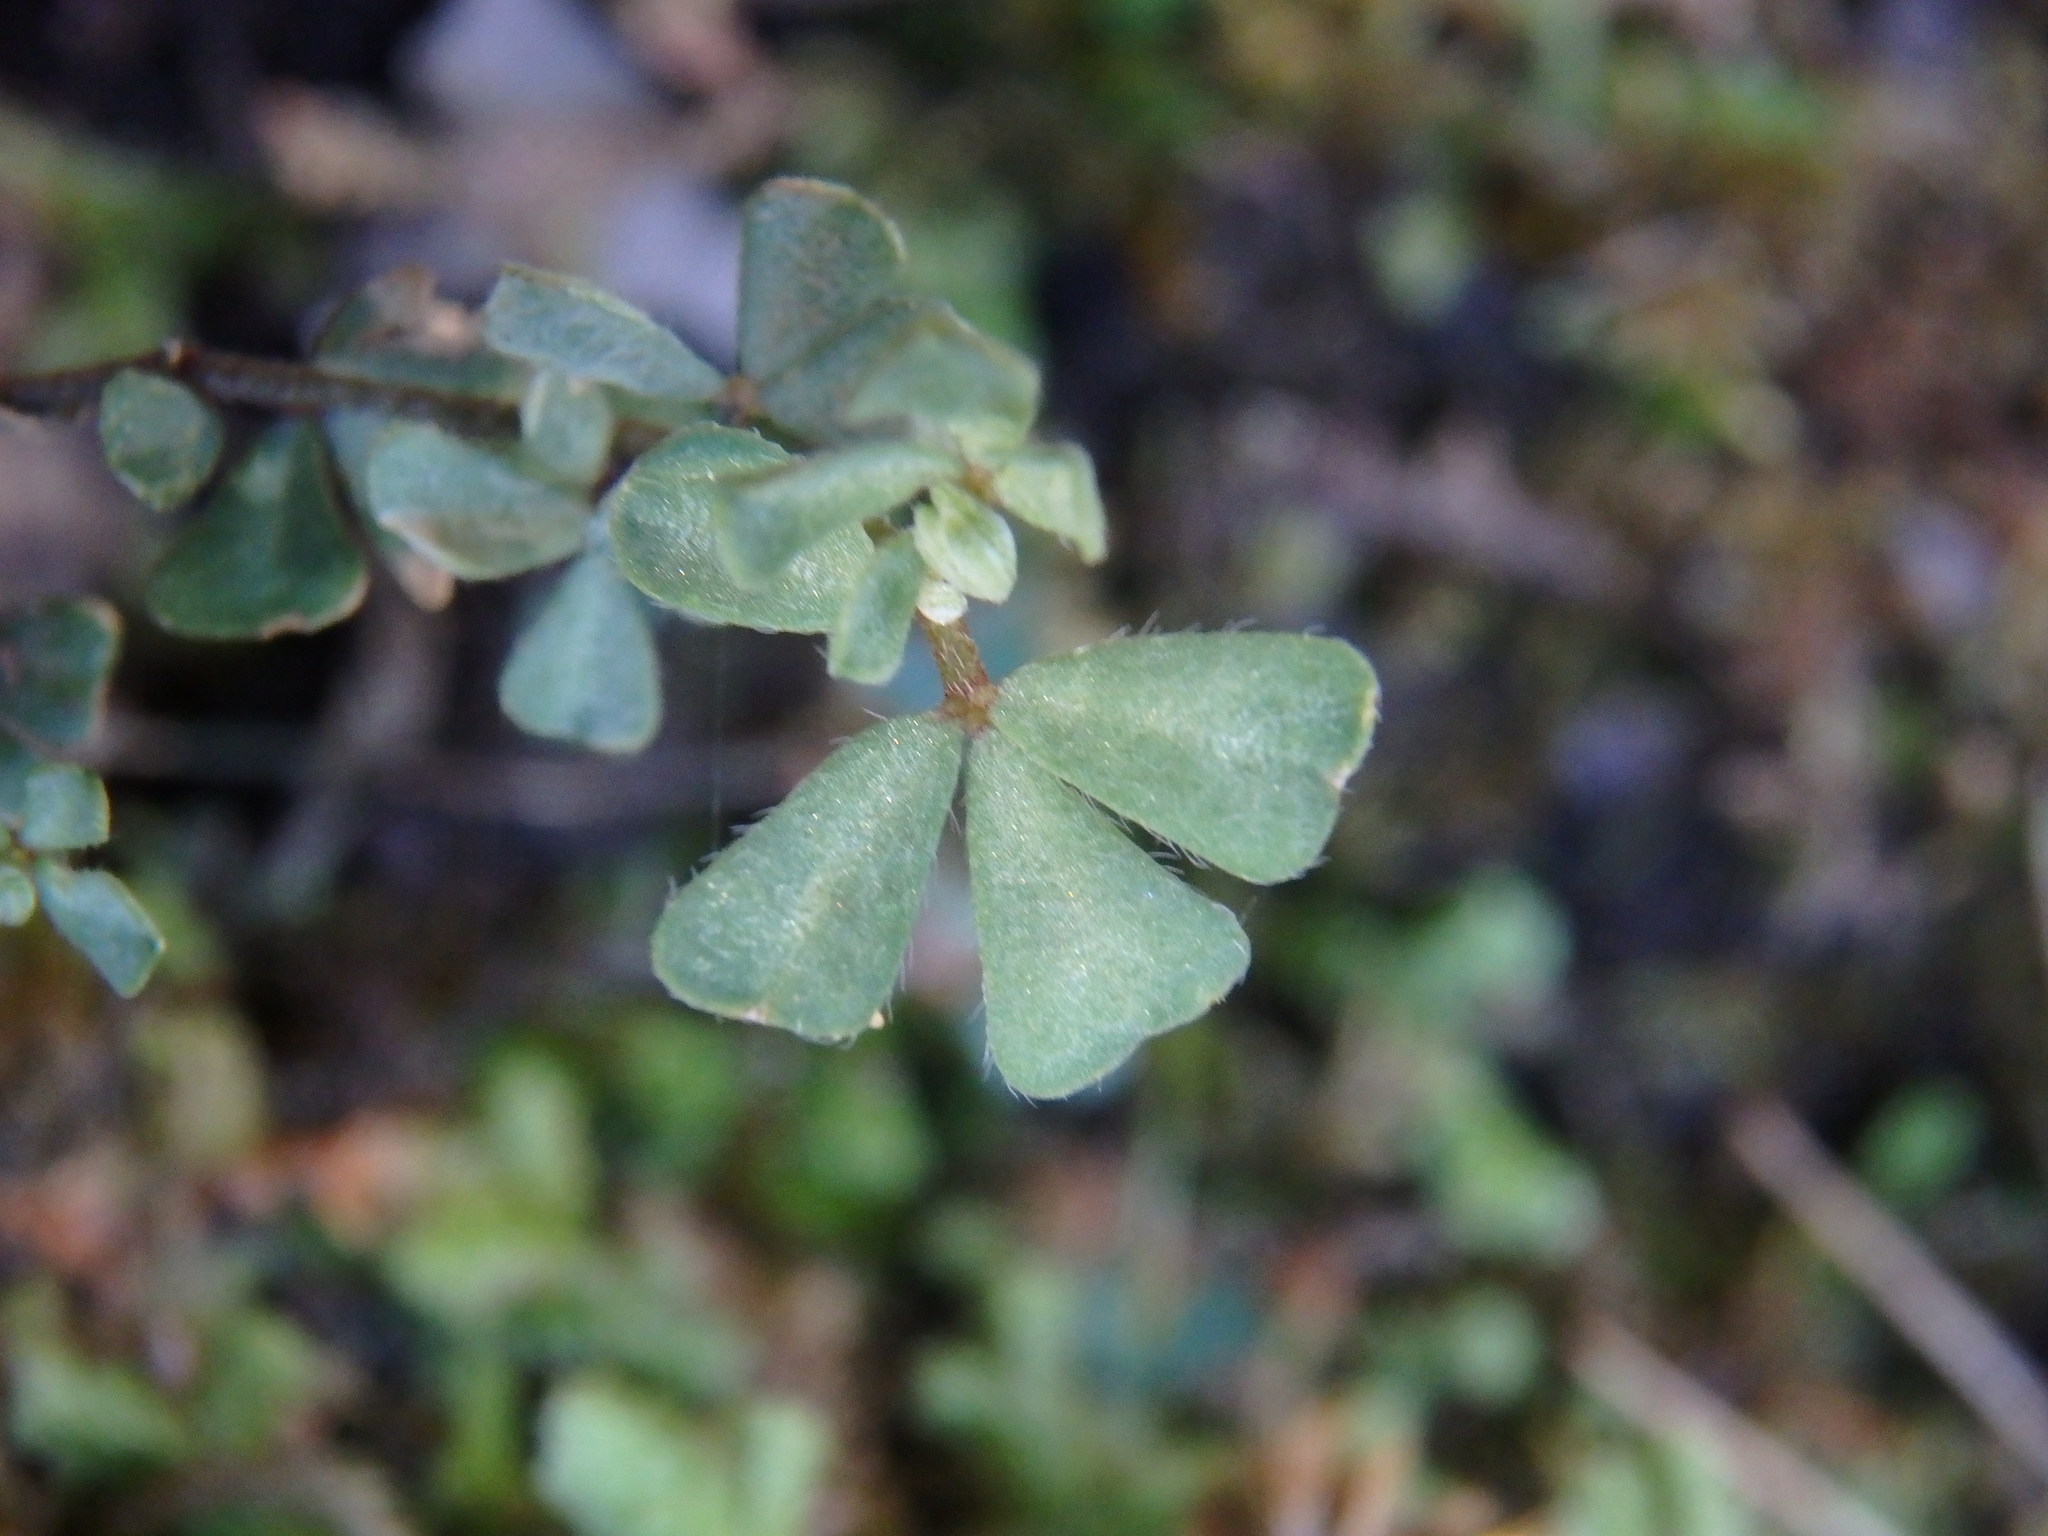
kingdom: Plantae
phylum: Tracheophyta
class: Magnoliopsida
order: Fabales
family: Fabaceae
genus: Lotus
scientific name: Lotus tetraphyllus
